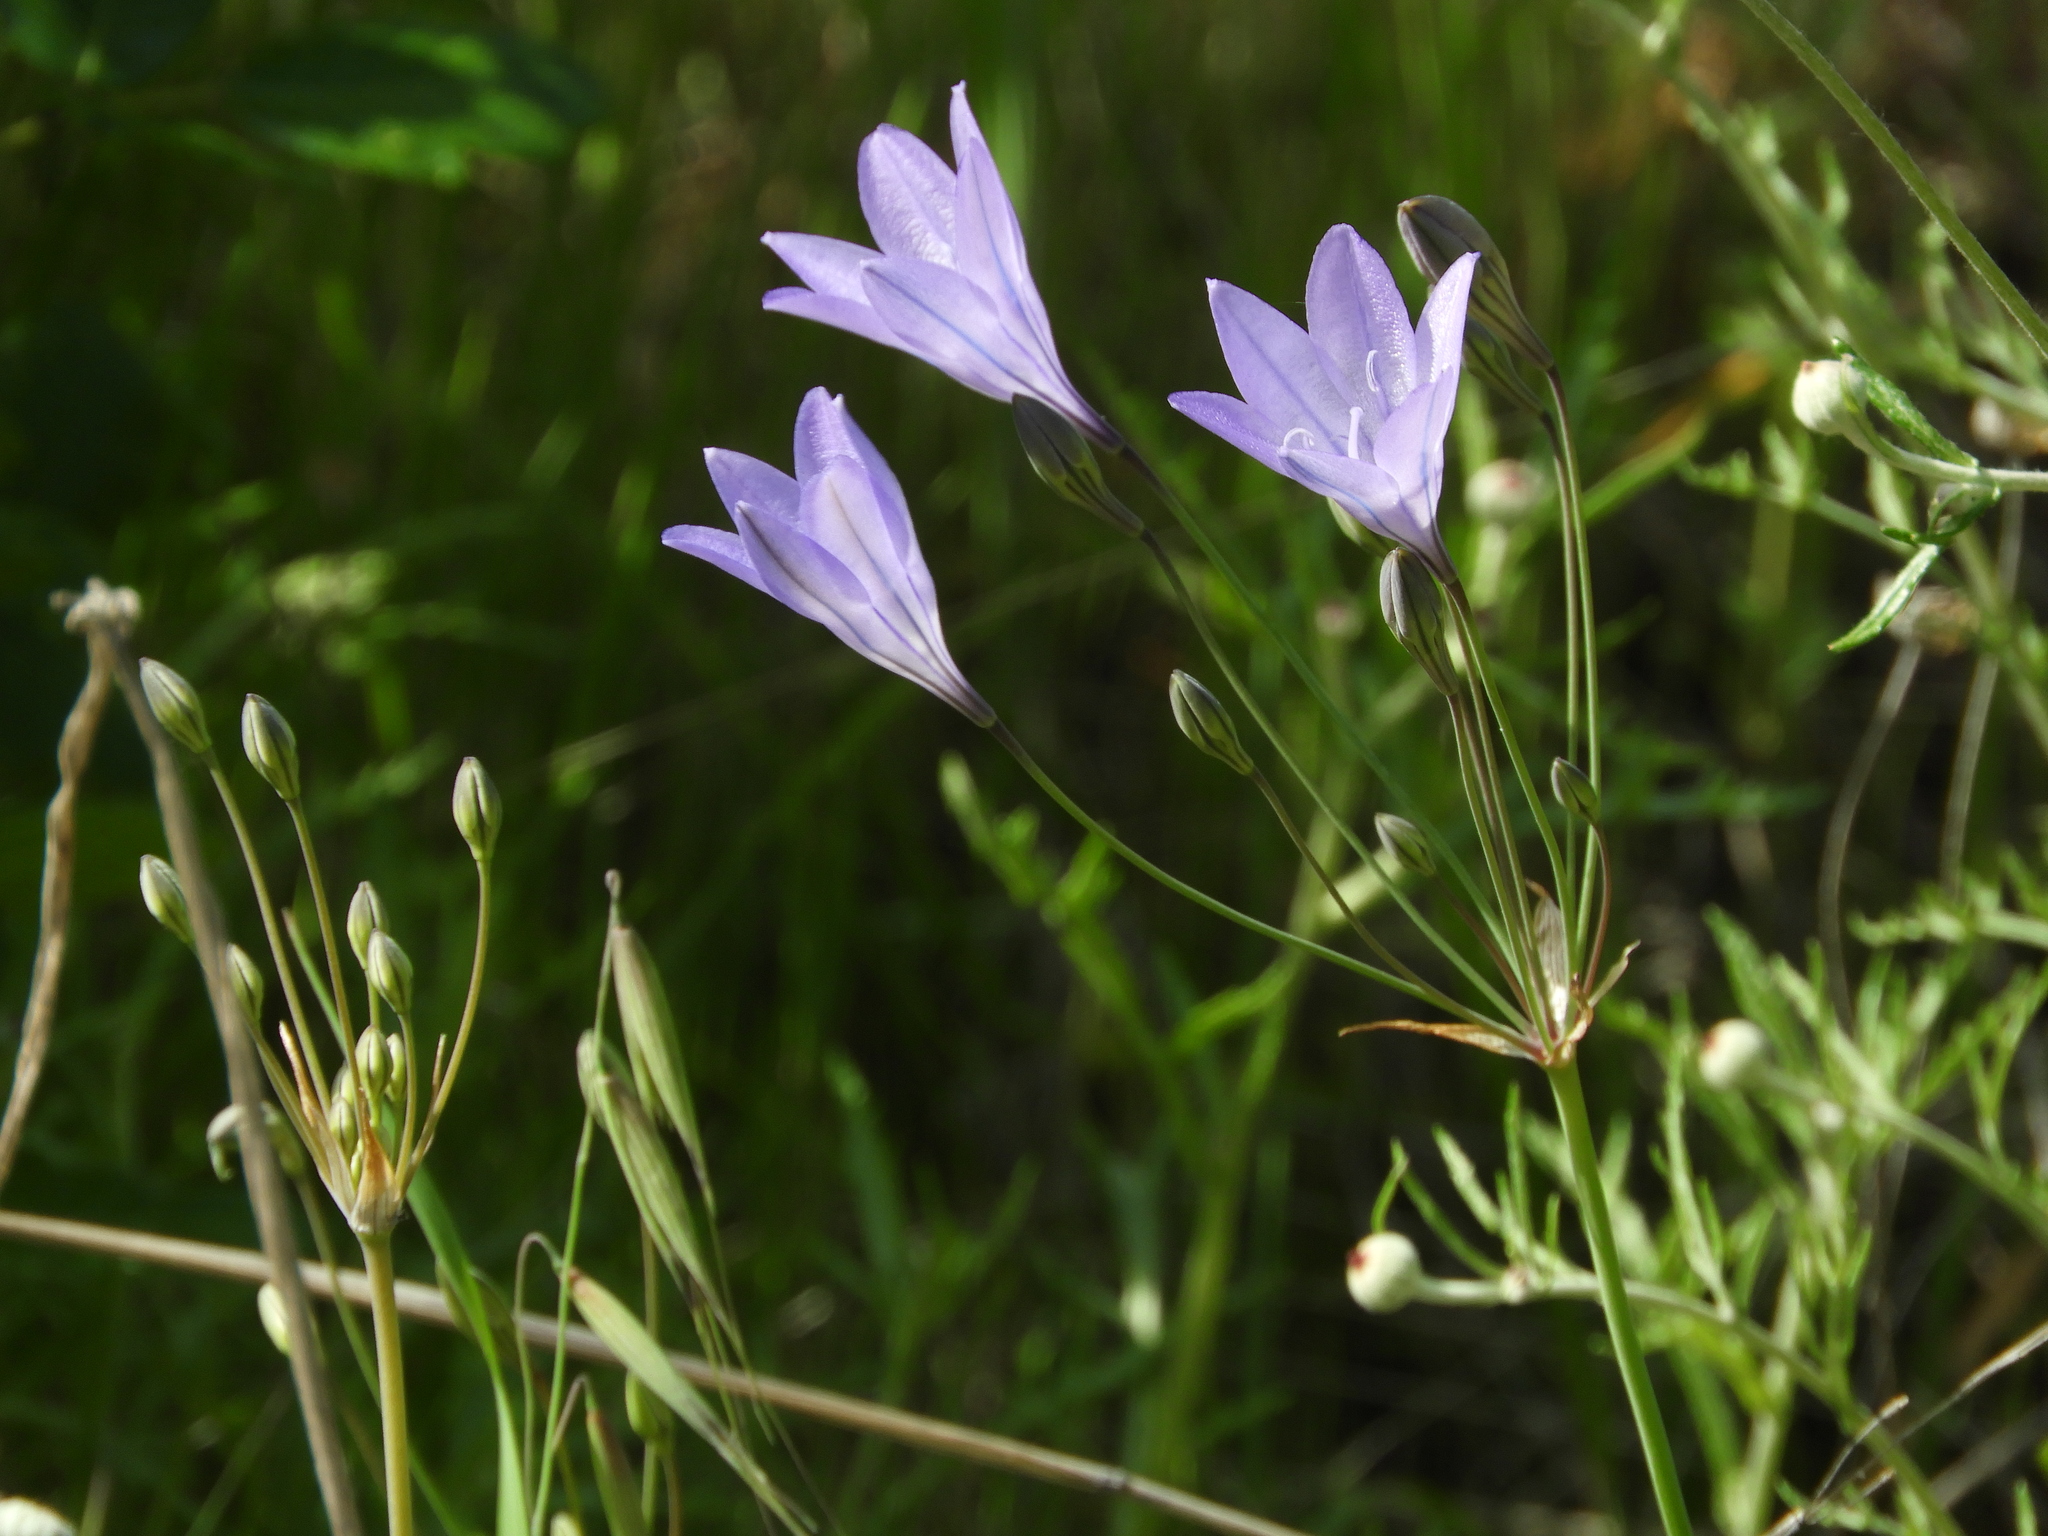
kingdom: Plantae
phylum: Tracheophyta
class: Liliopsida
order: Asparagales
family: Asparagaceae
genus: Triteleia
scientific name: Triteleia laxa
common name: Triplet-lily
